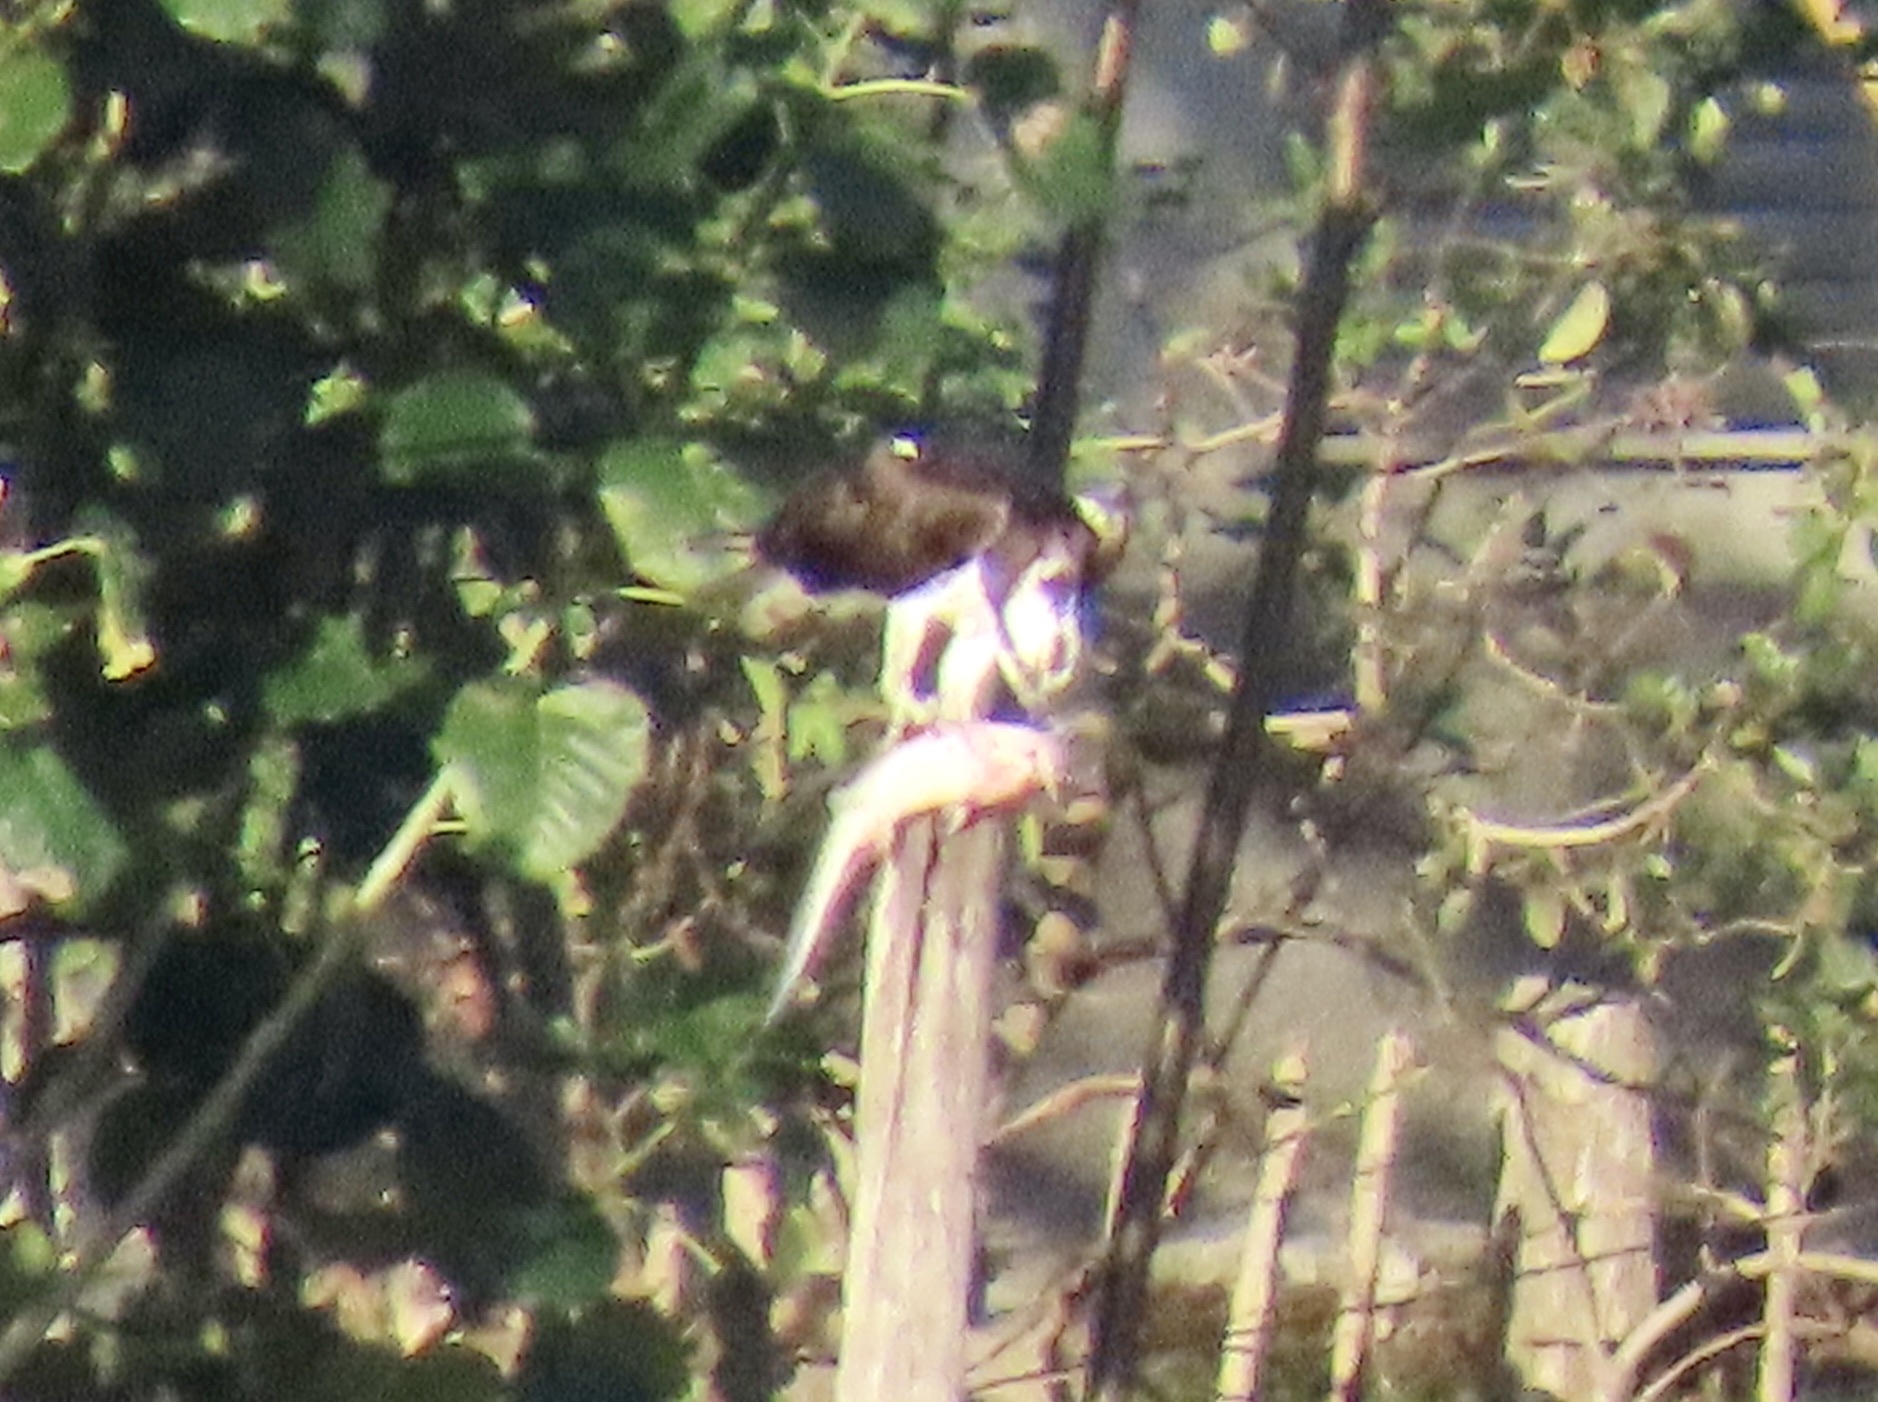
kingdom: Animalia
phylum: Chordata
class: Aves
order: Accipitriformes
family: Pandionidae
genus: Pandion
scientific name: Pandion haliaetus
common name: Osprey
